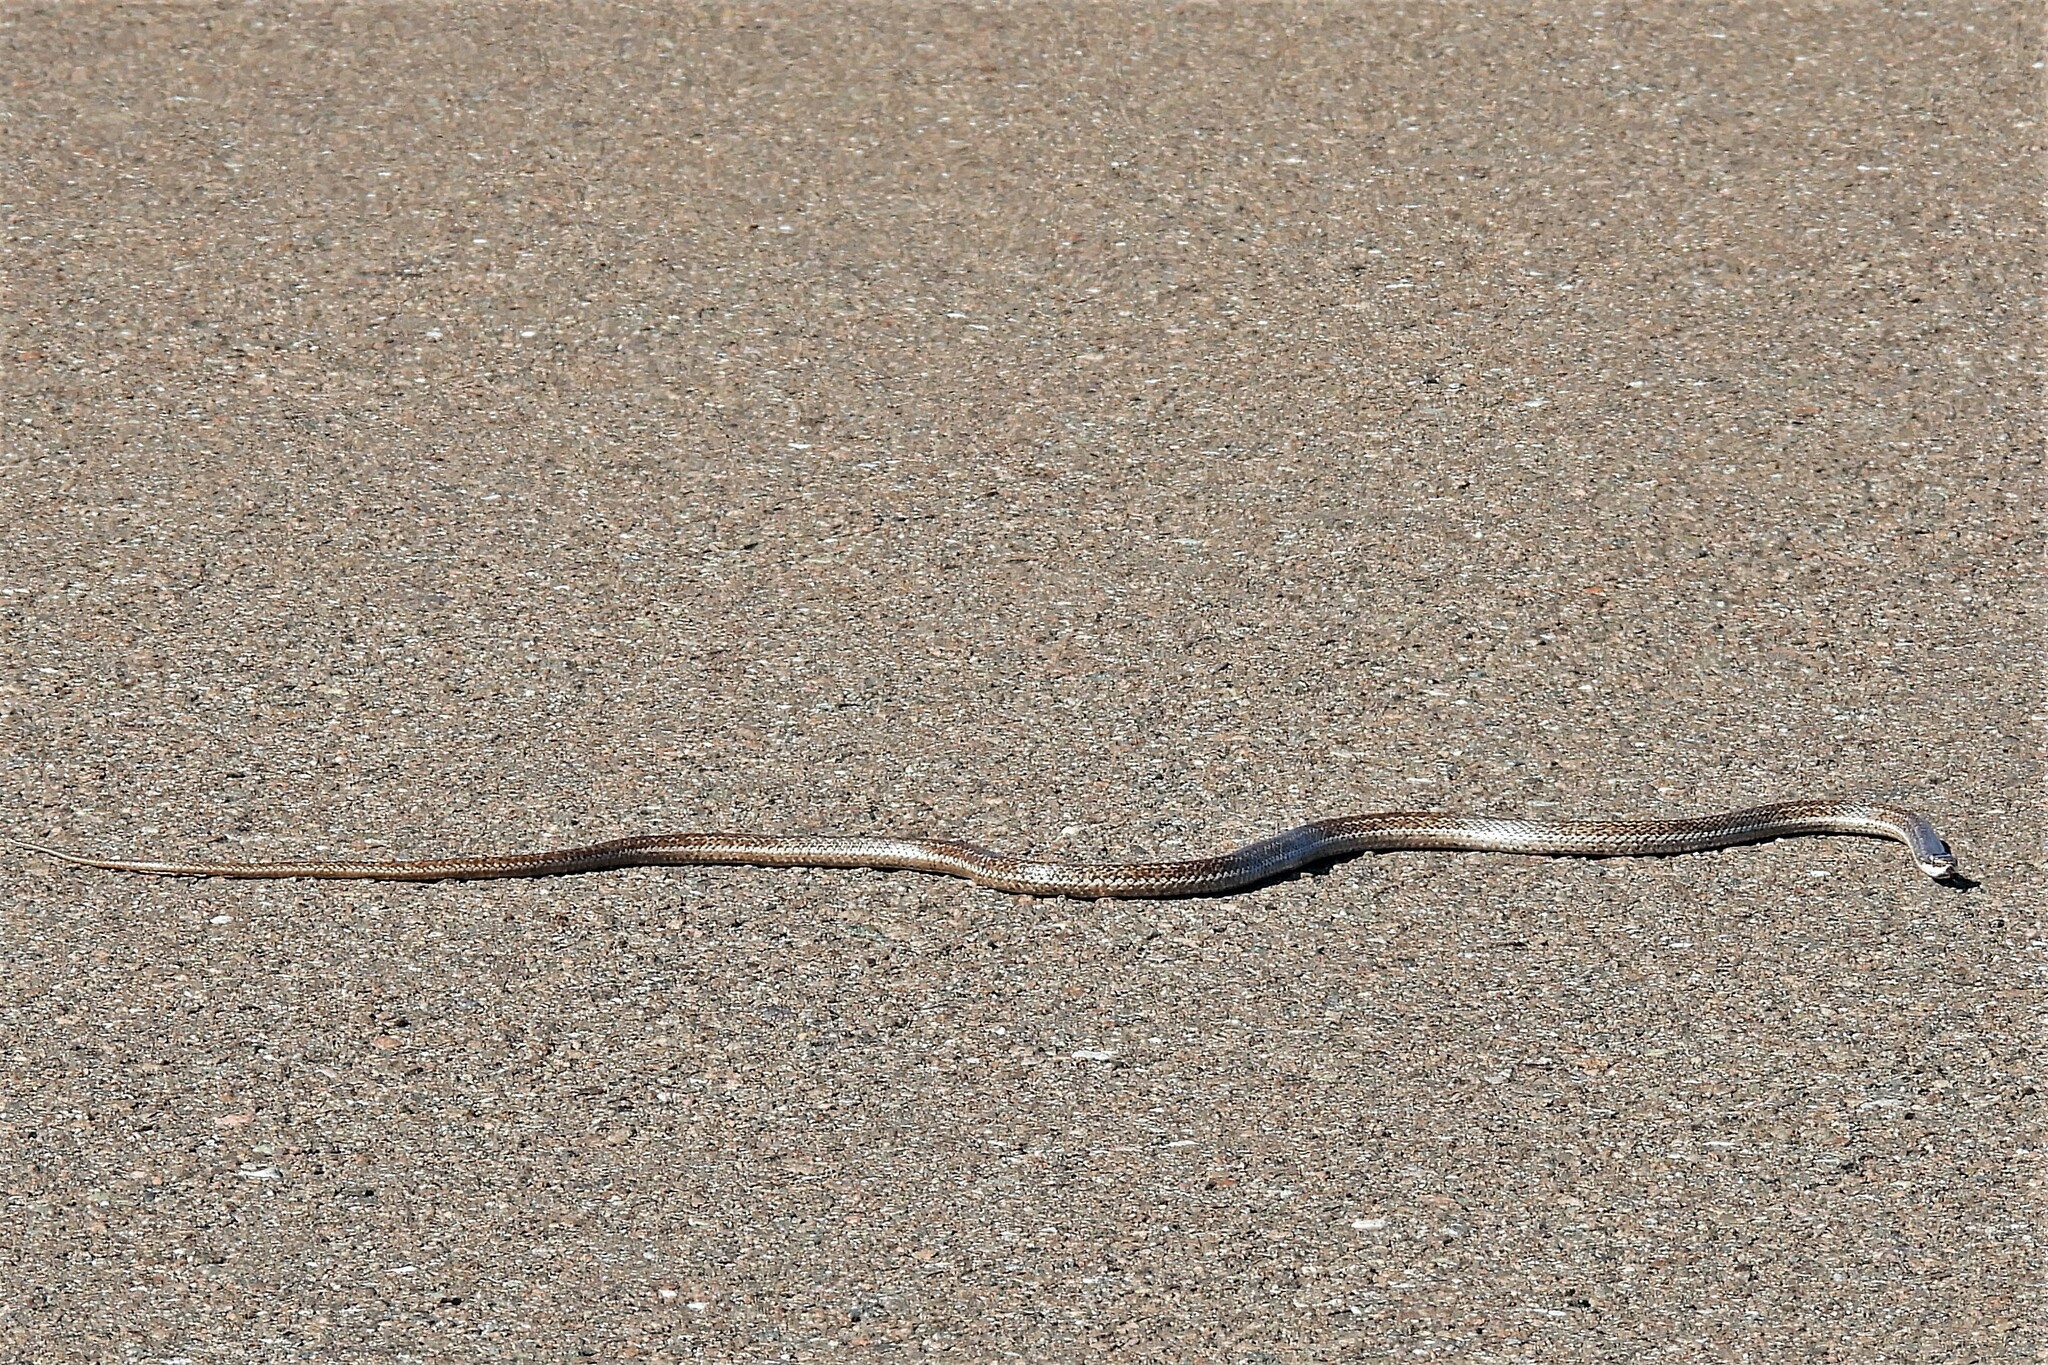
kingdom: Animalia
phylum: Chordata
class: Squamata
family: Colubridae
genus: Philodryas
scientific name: Philodryas trilineata
